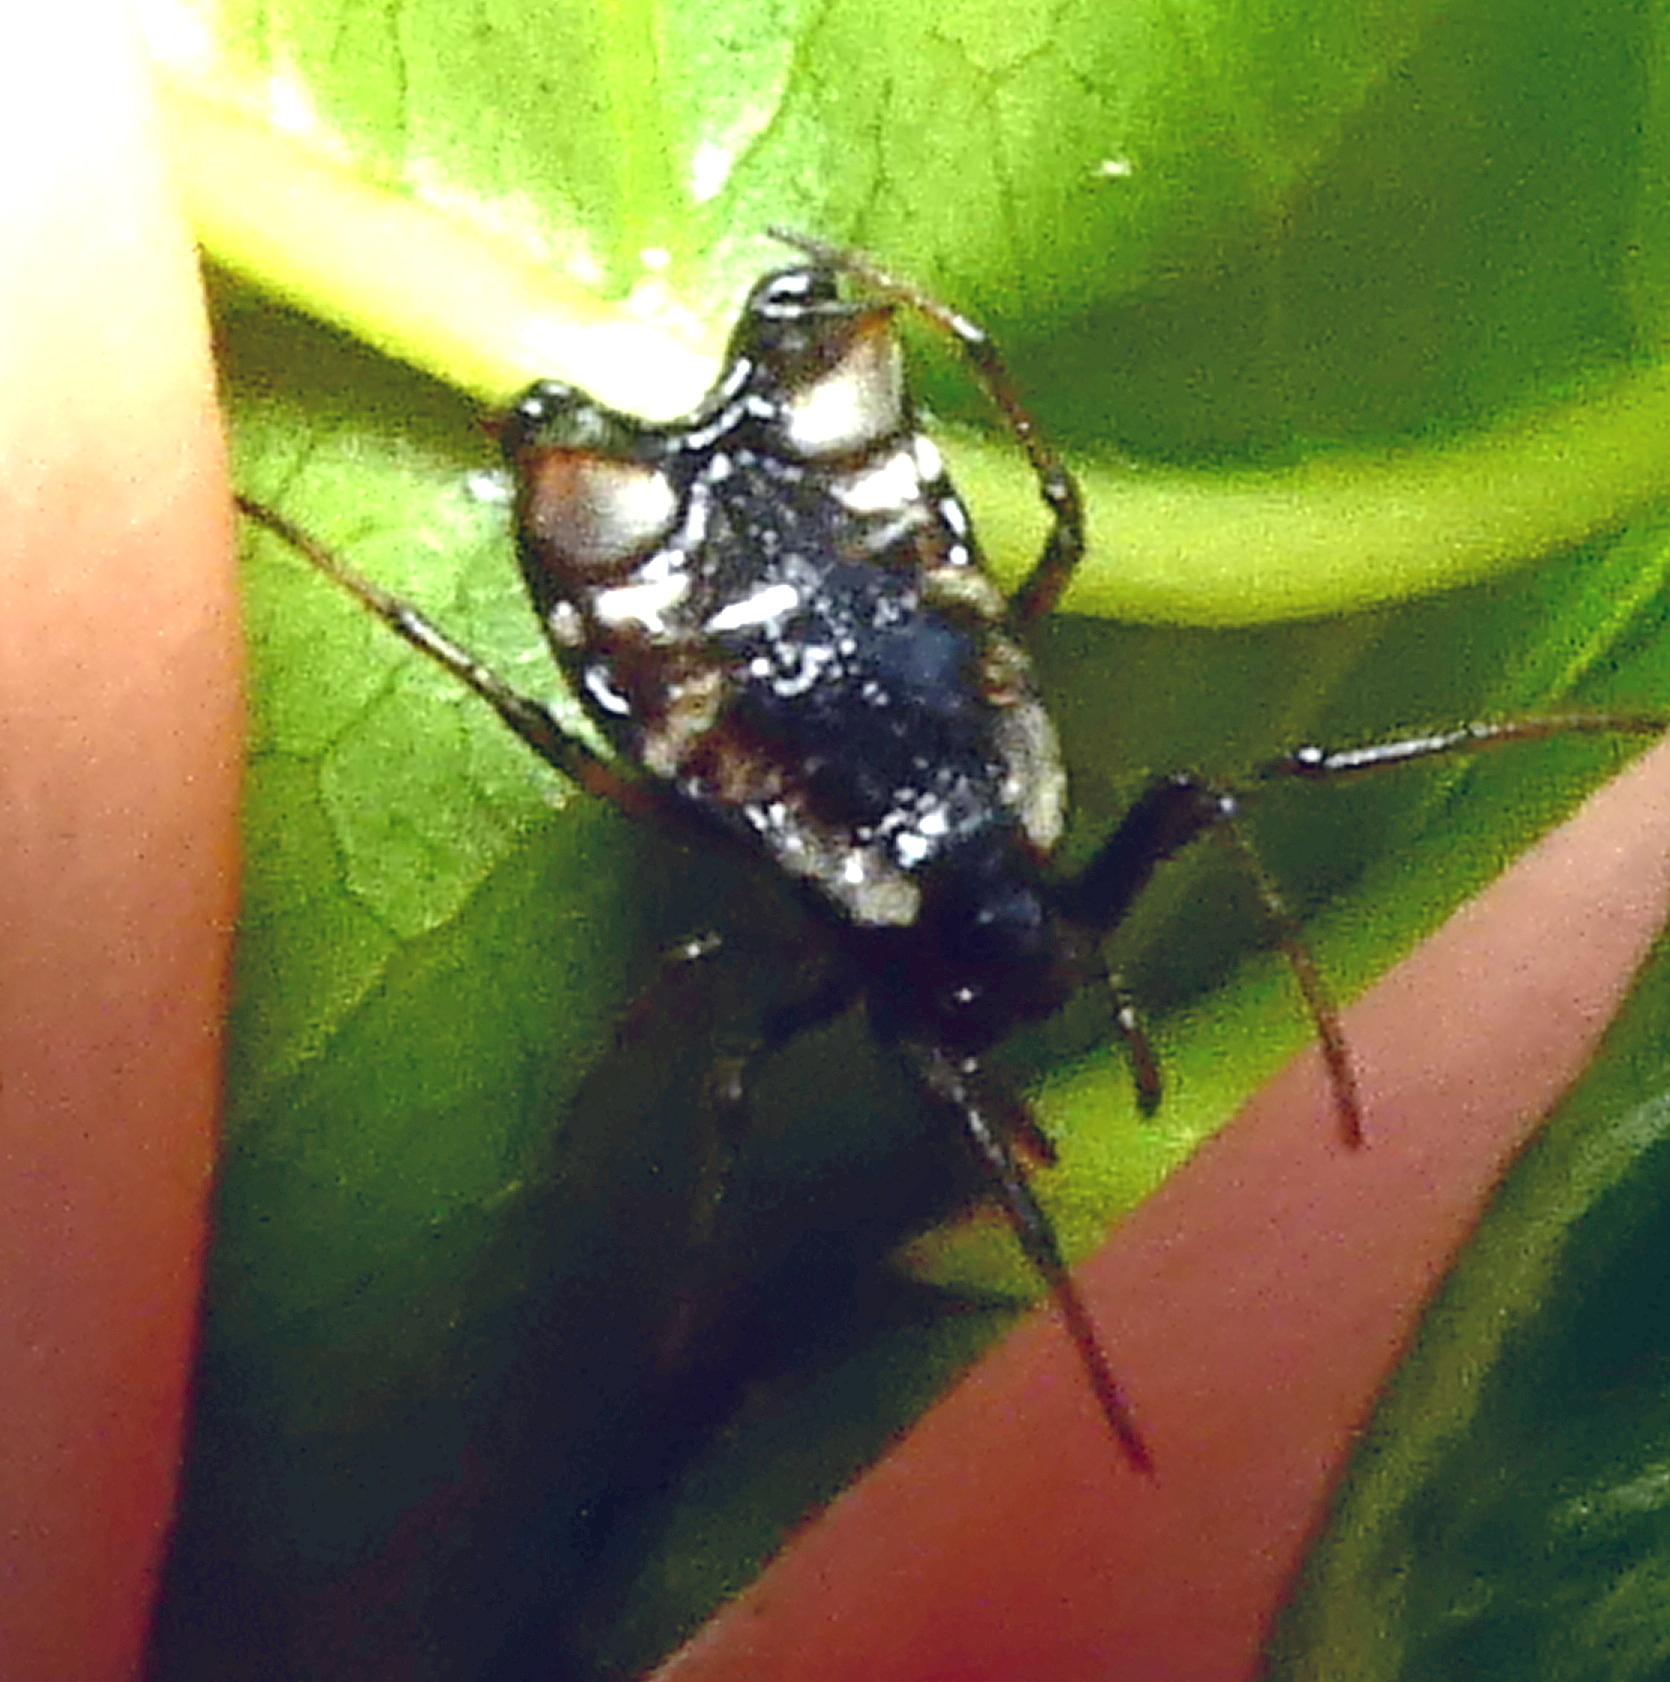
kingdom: Animalia
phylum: Arthropoda
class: Arachnida
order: Araneae
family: Araneidae
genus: Micrathena
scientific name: Micrathena patruelis
